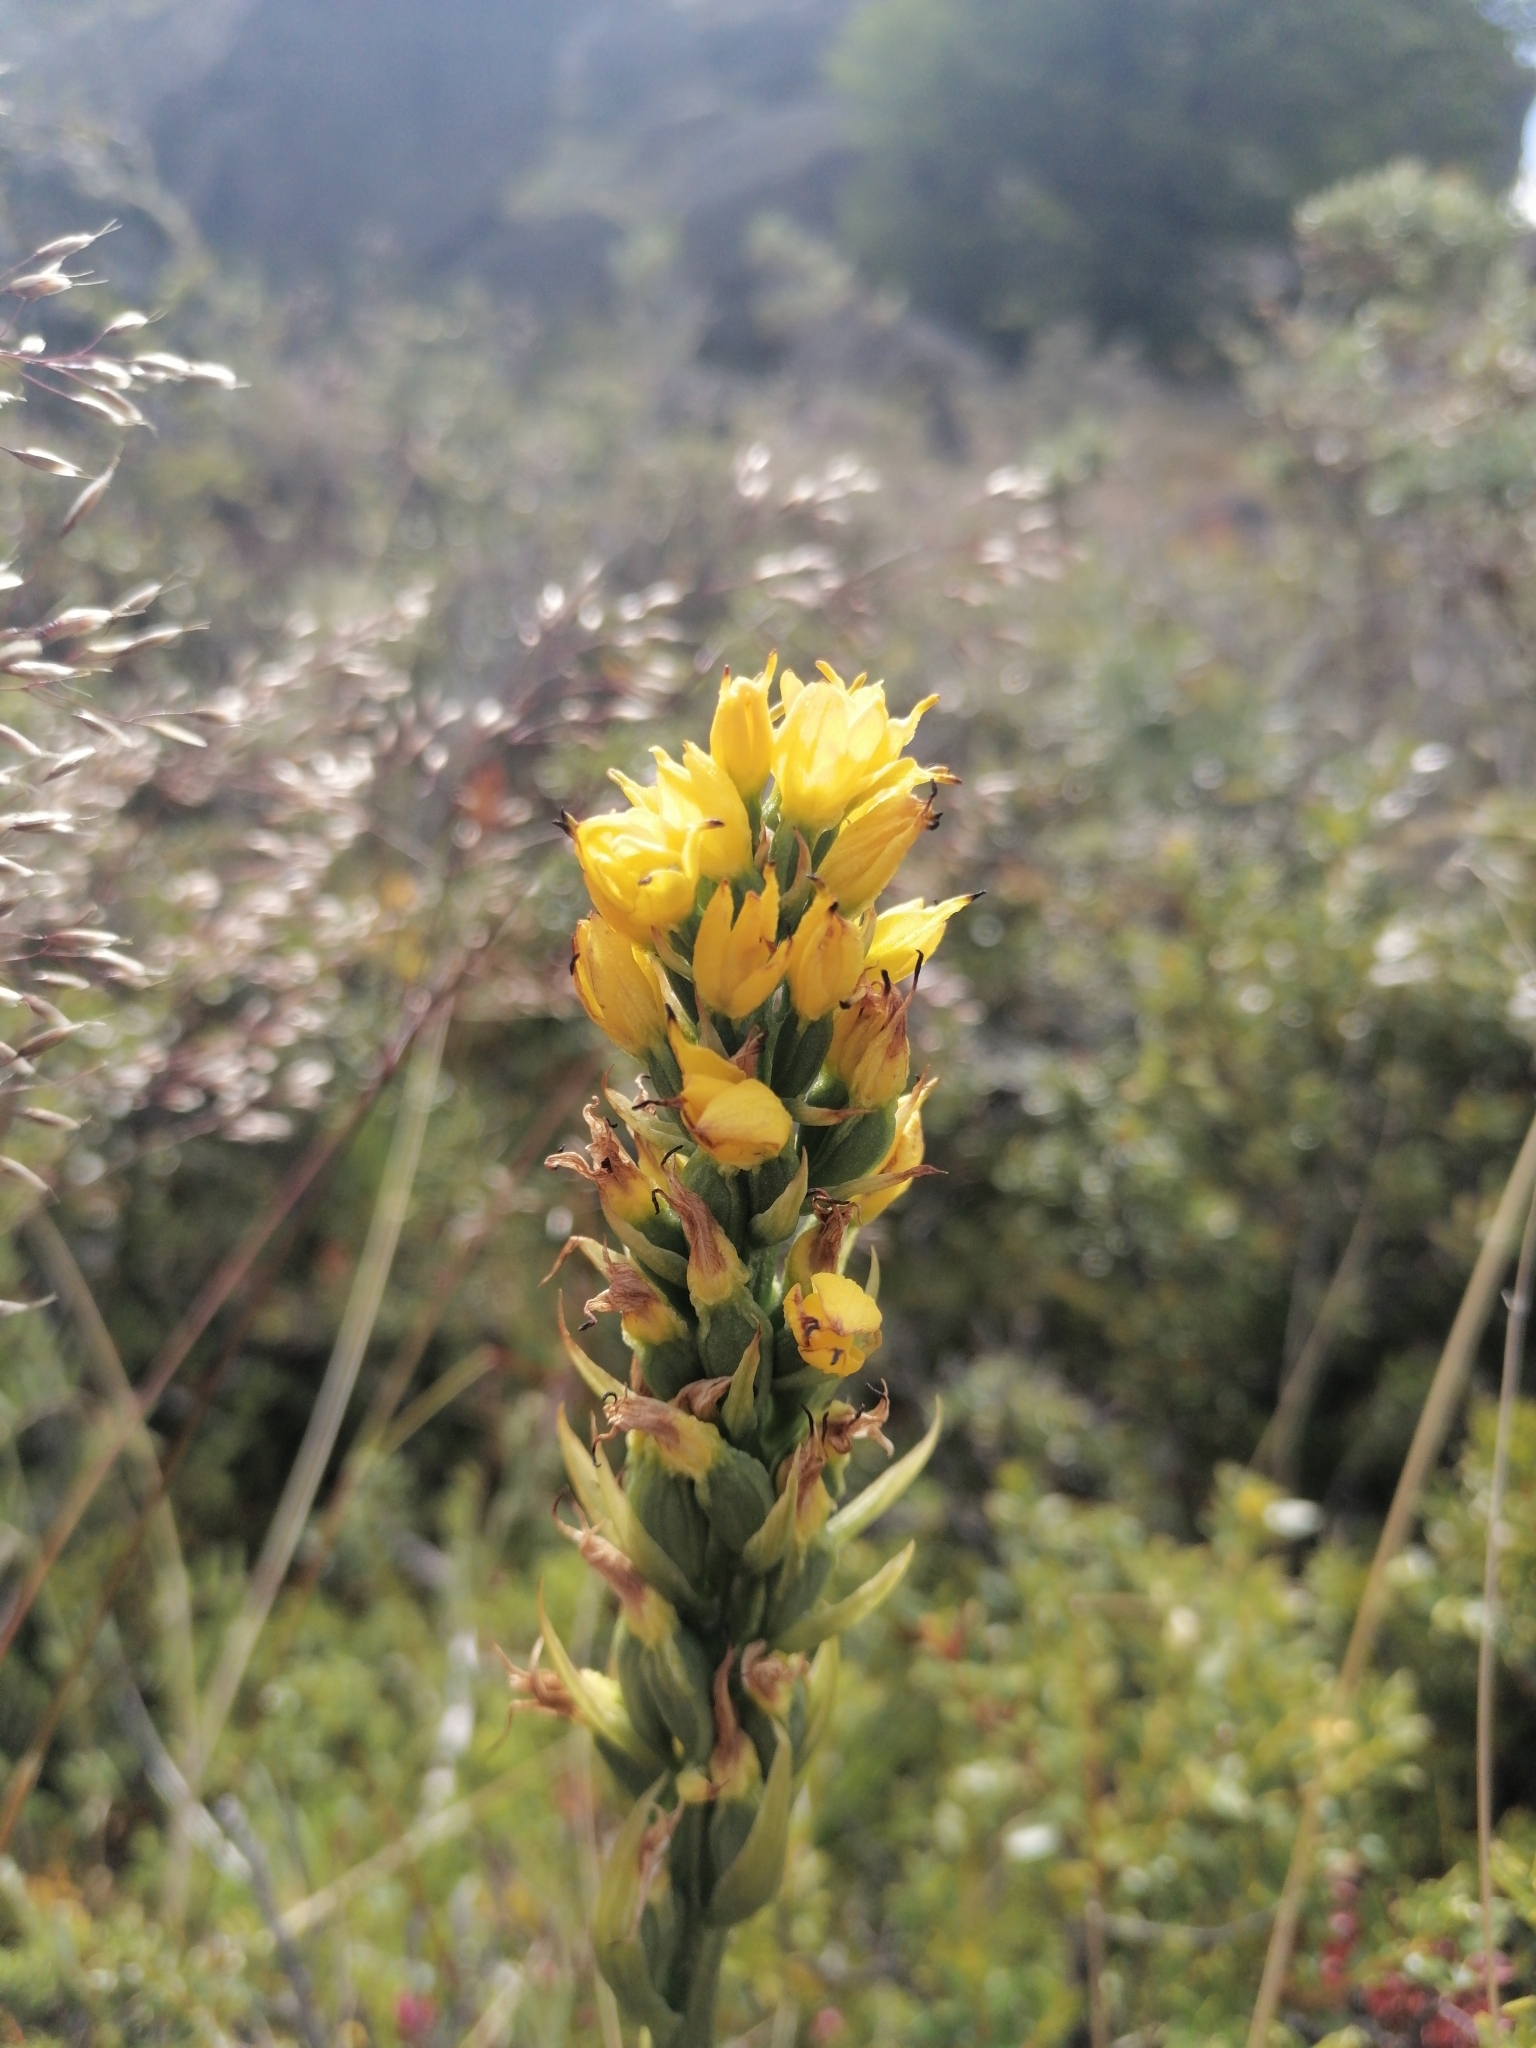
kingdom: Plantae
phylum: Tracheophyta
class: Liliopsida
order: Asparagales
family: Orchidaceae
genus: Gavilea
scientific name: Gavilea lutea
